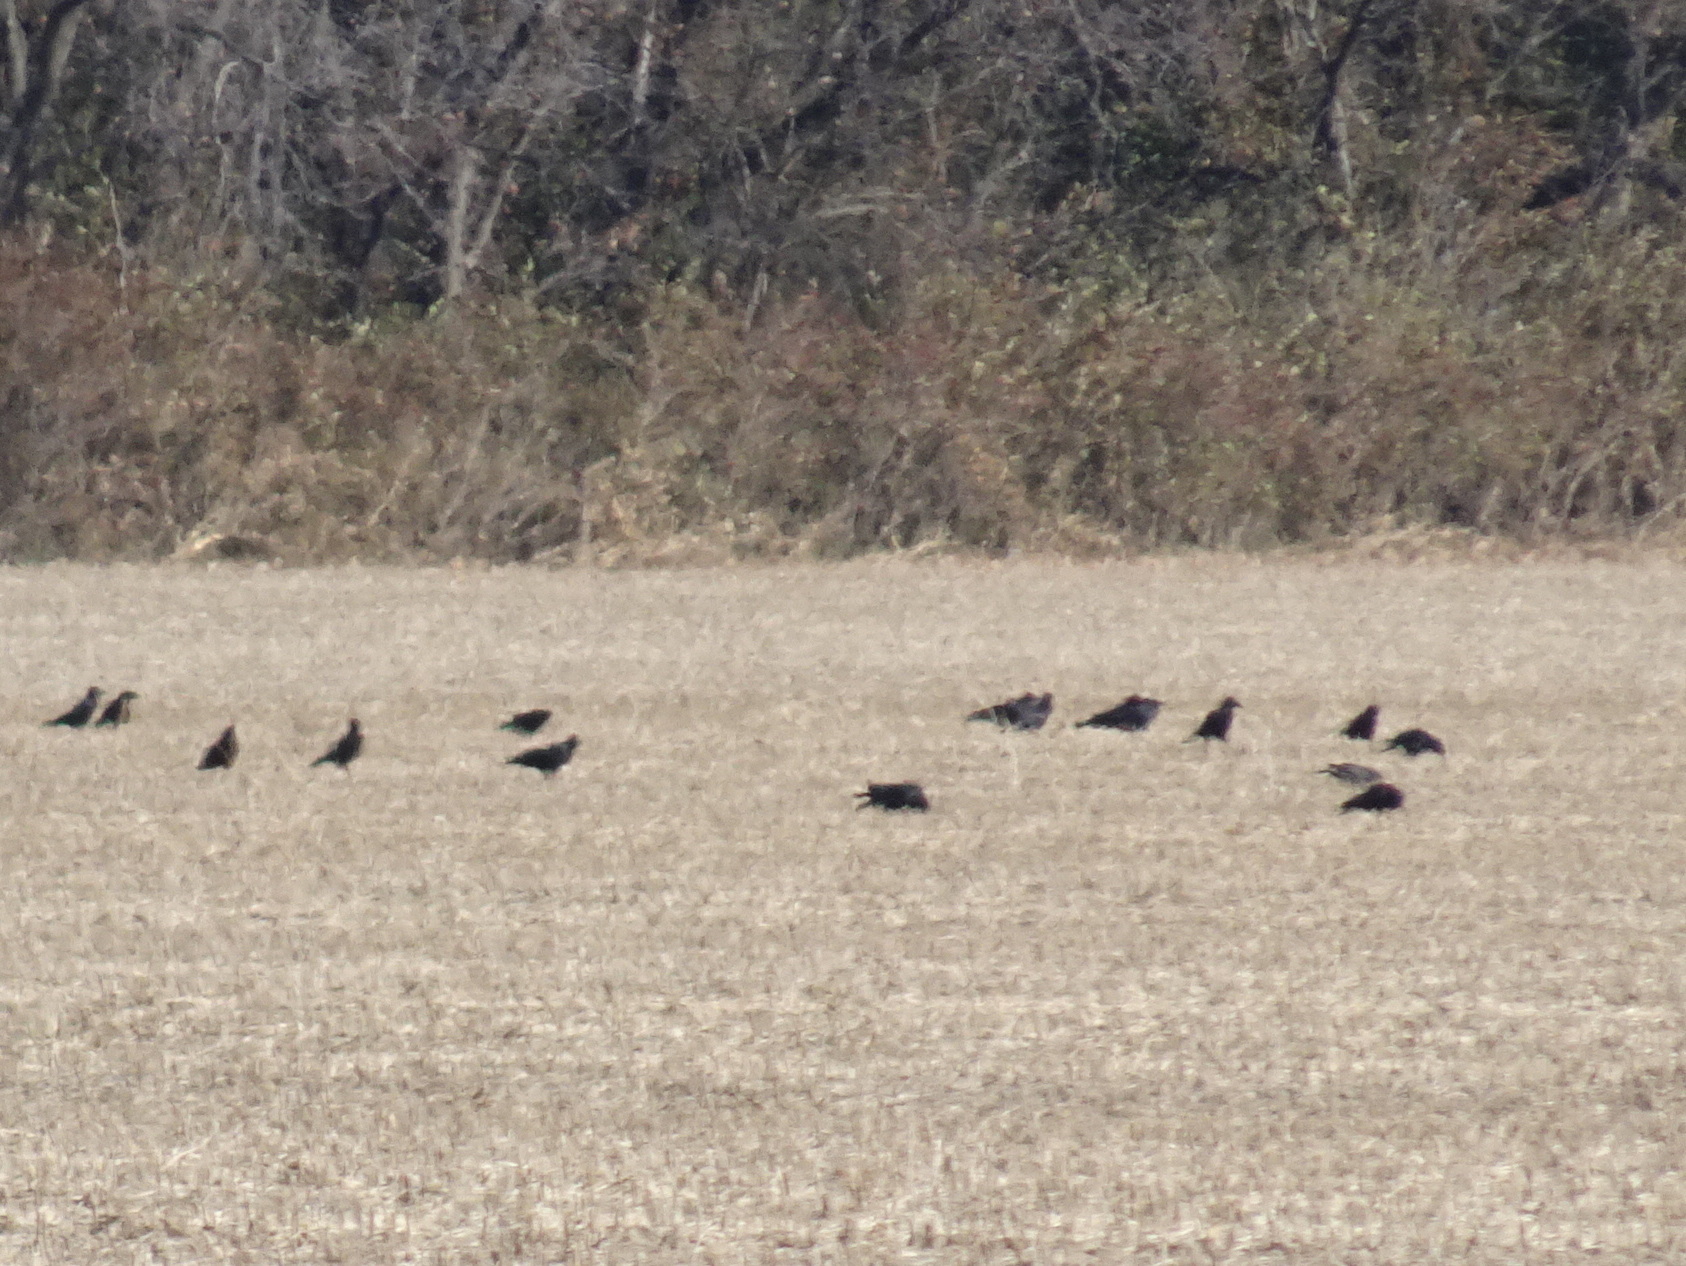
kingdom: Animalia
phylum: Chordata
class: Aves
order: Passeriformes
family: Corvidae
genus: Corvus
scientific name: Corvus brachyrhynchos
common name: American crow
